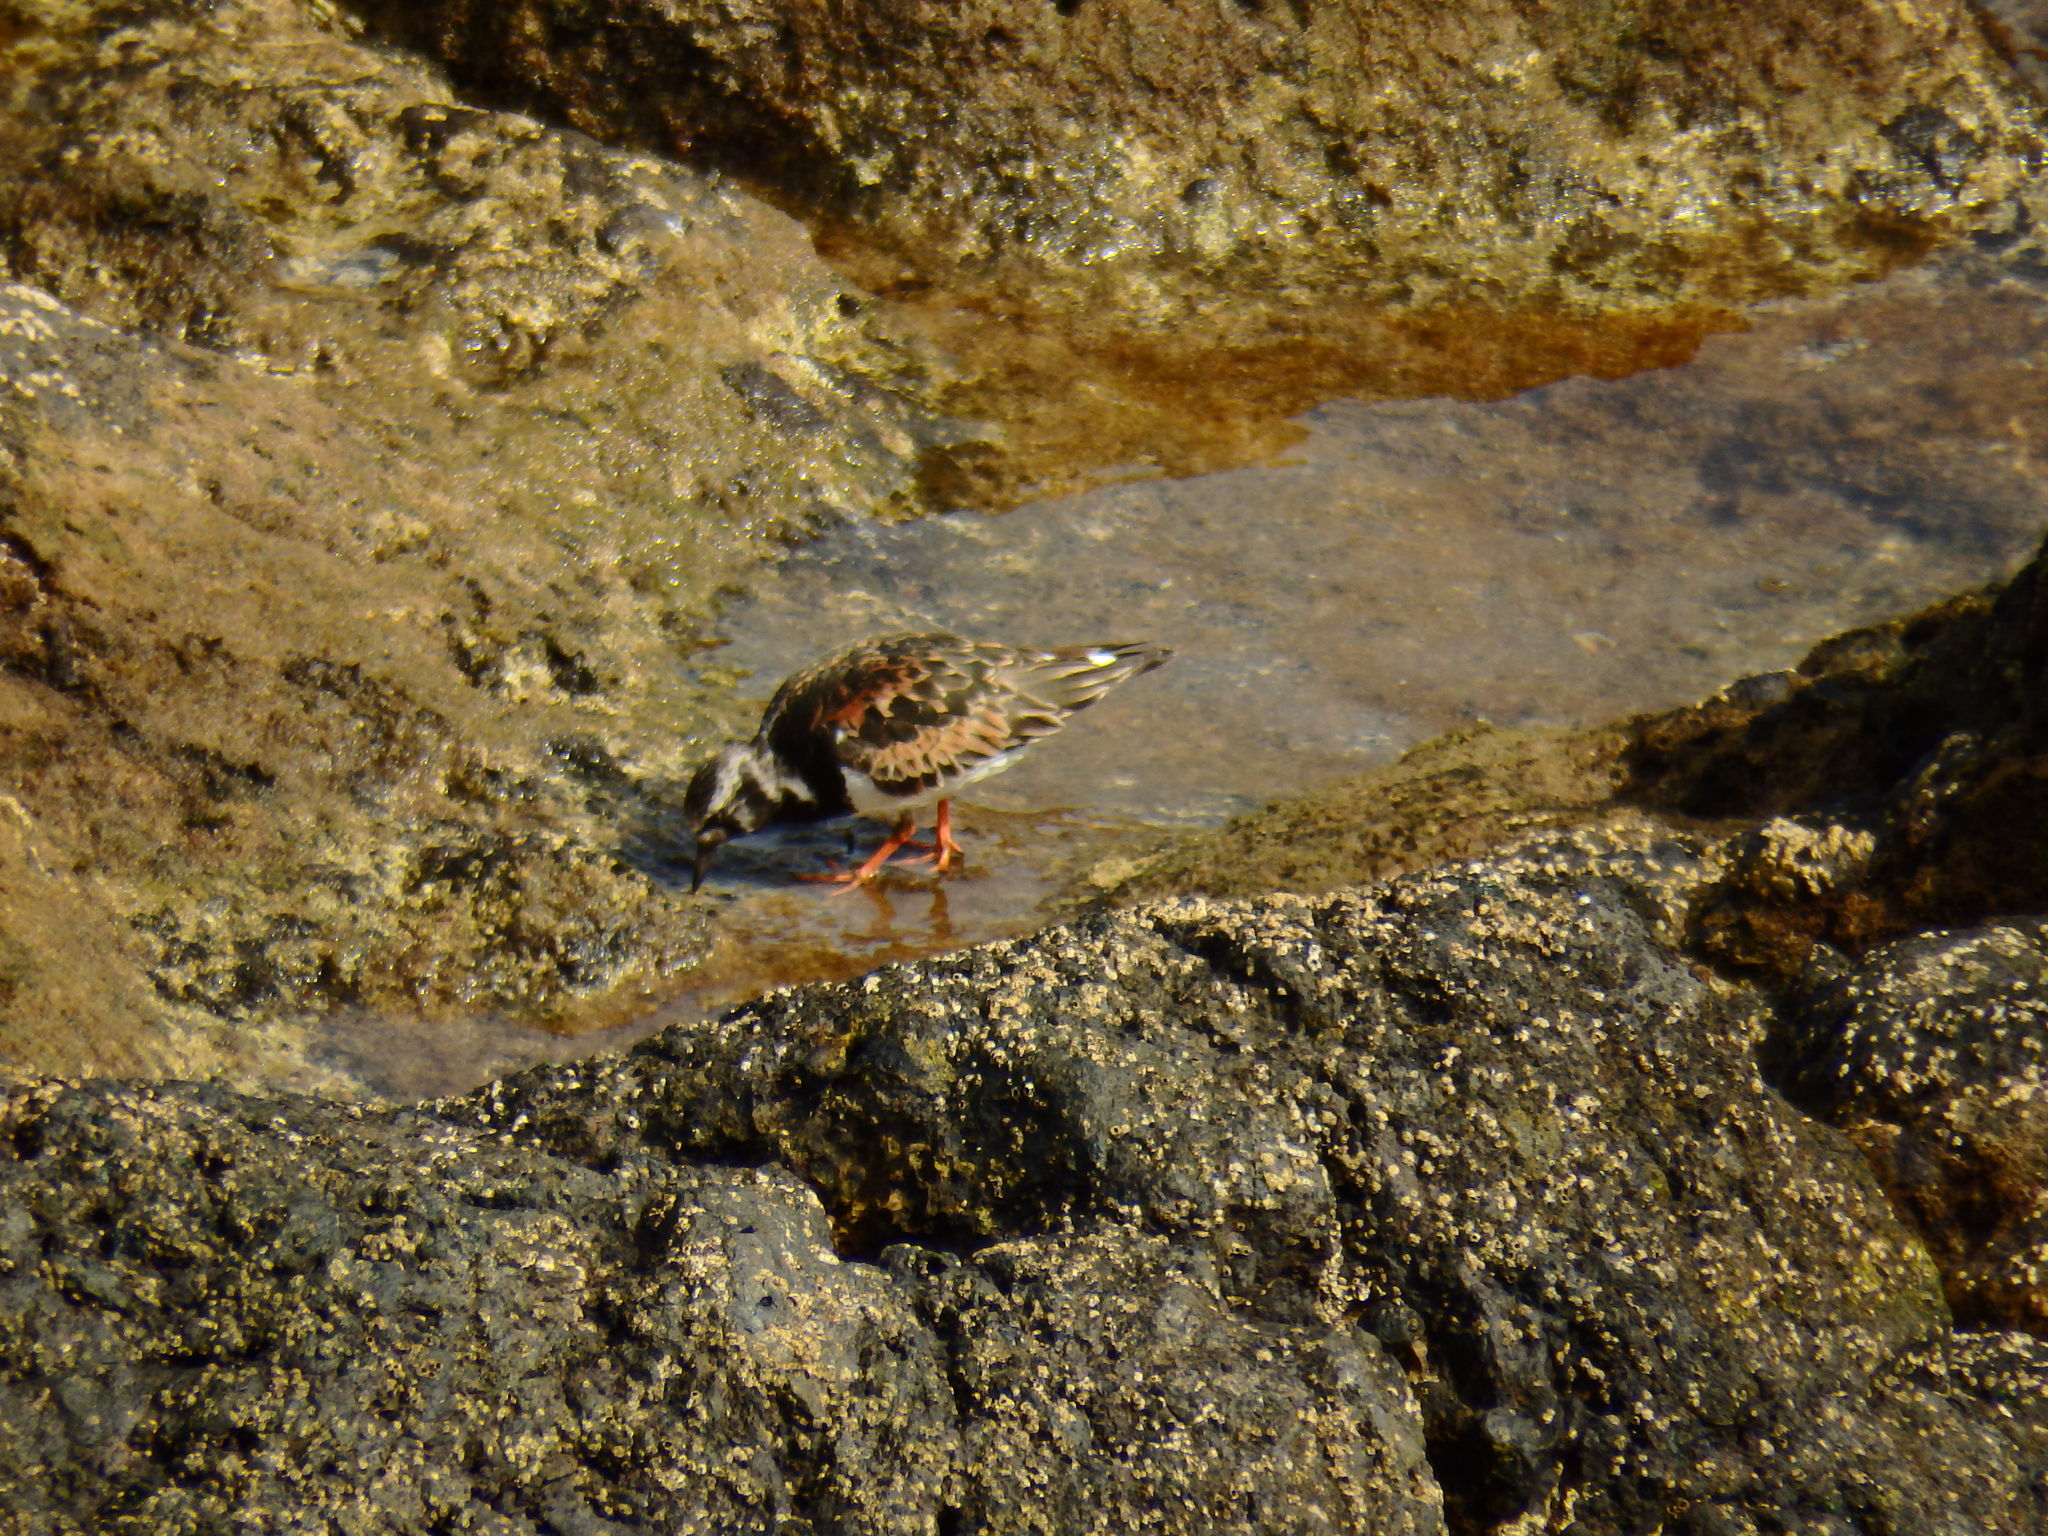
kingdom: Animalia
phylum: Chordata
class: Aves
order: Charadriiformes
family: Scolopacidae
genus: Arenaria
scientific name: Arenaria interpres
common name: Ruddy turnstone
